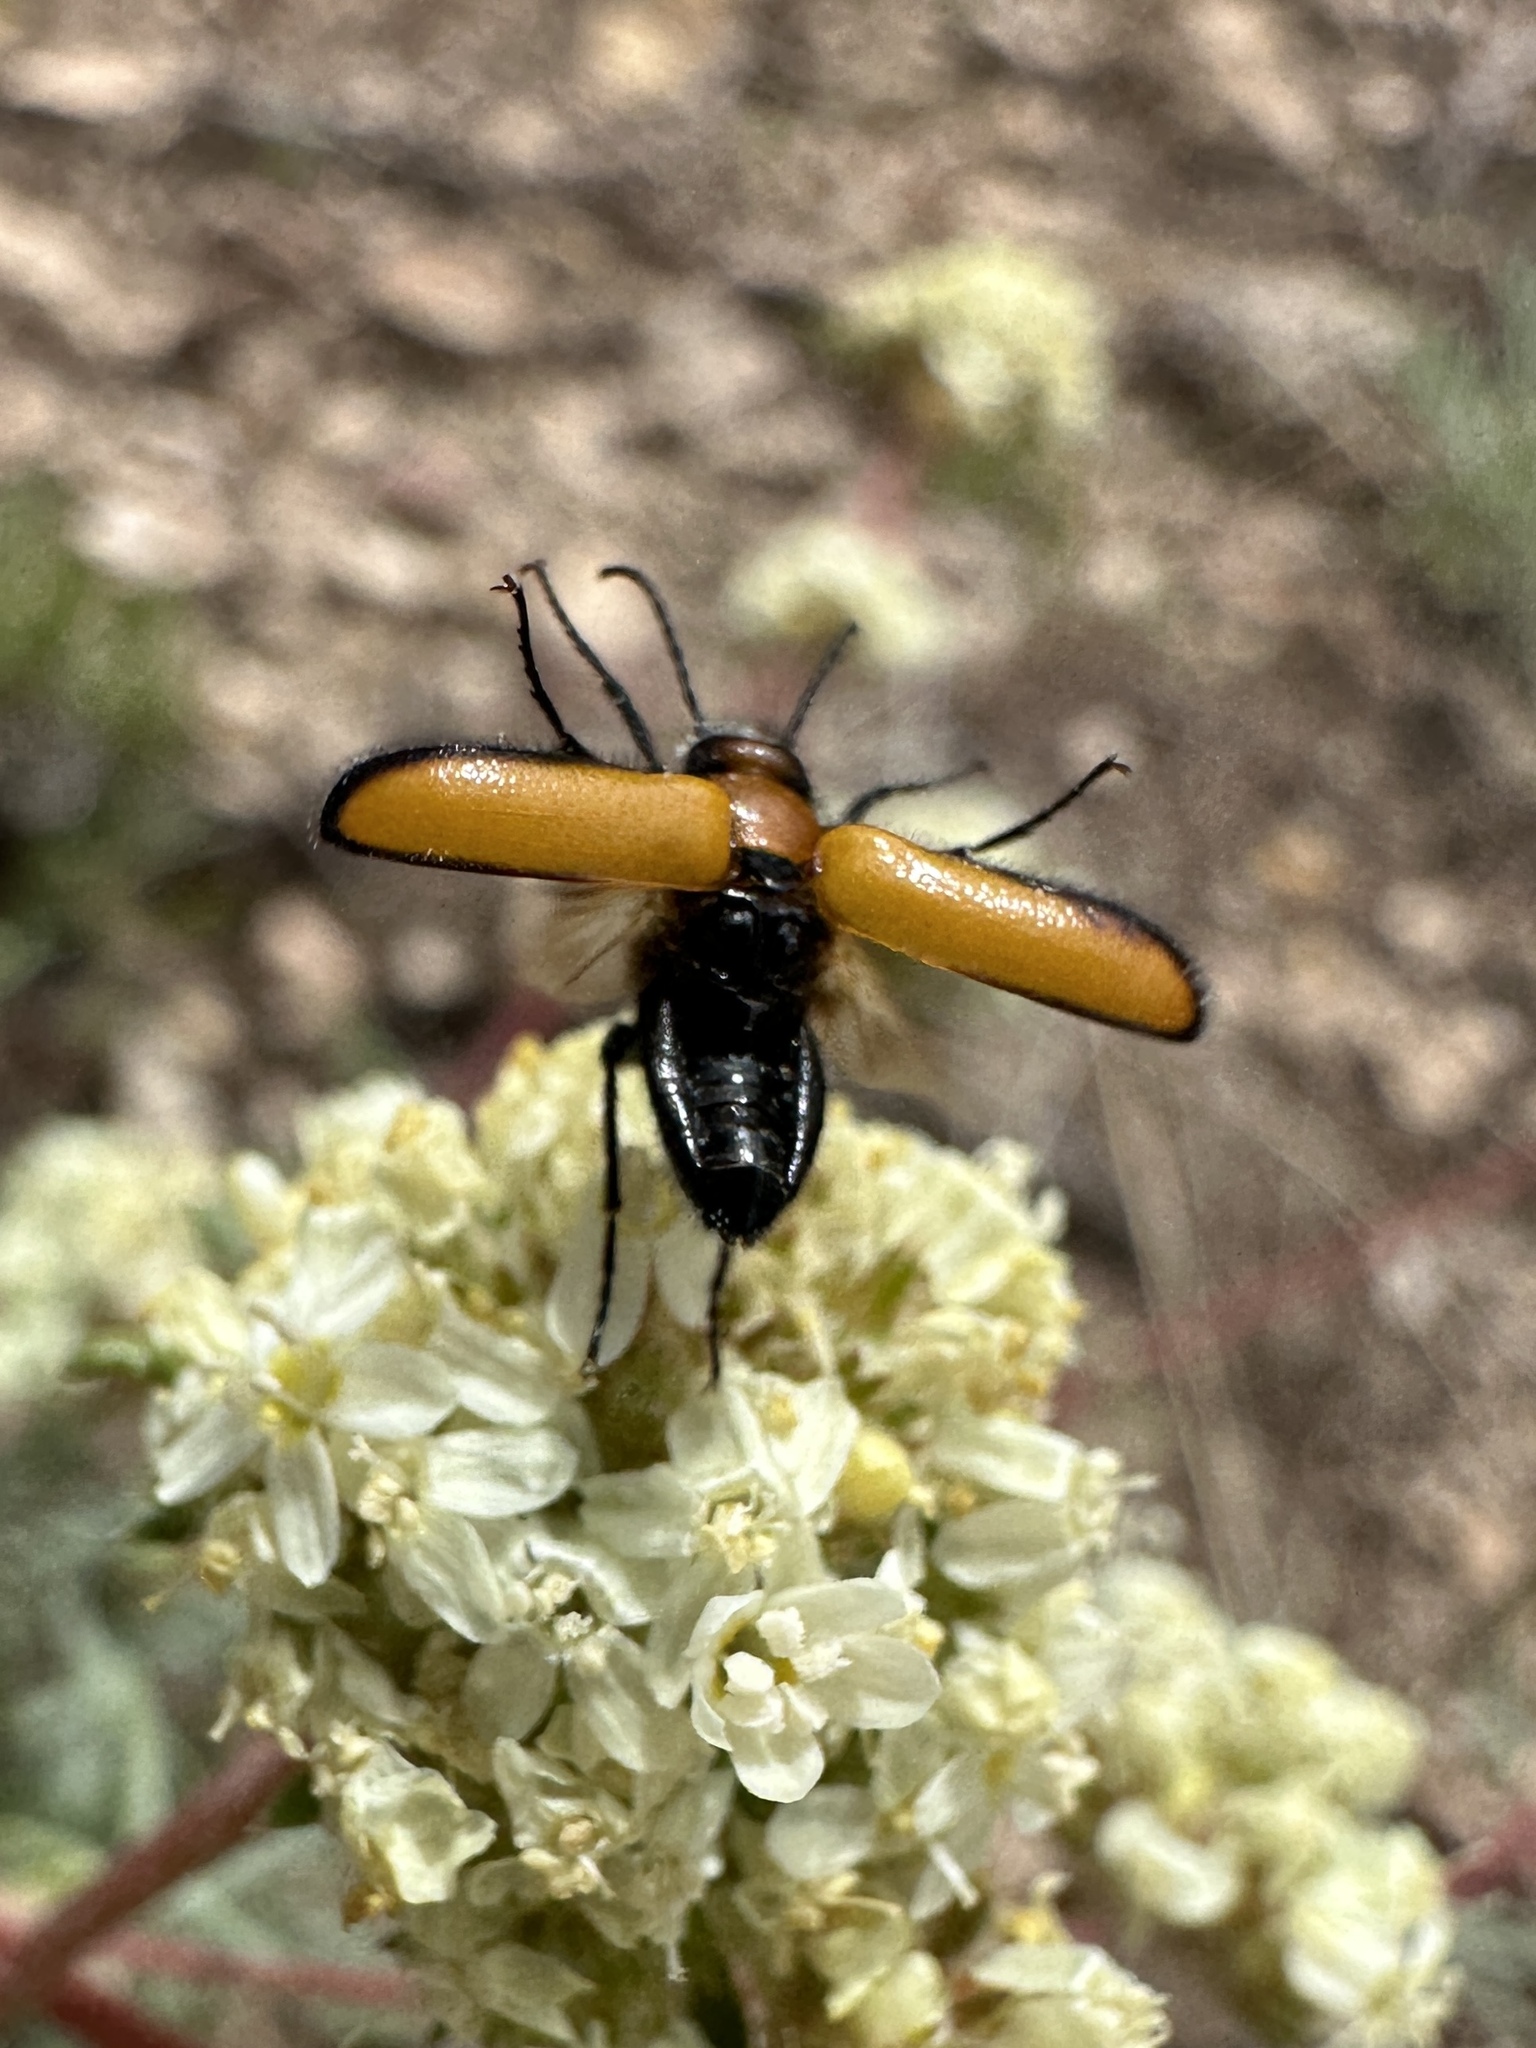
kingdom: Animalia
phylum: Arthropoda
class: Insecta
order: Coleoptera
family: Meloidae
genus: Nemognatha
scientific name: Nemognatha scutellaris
